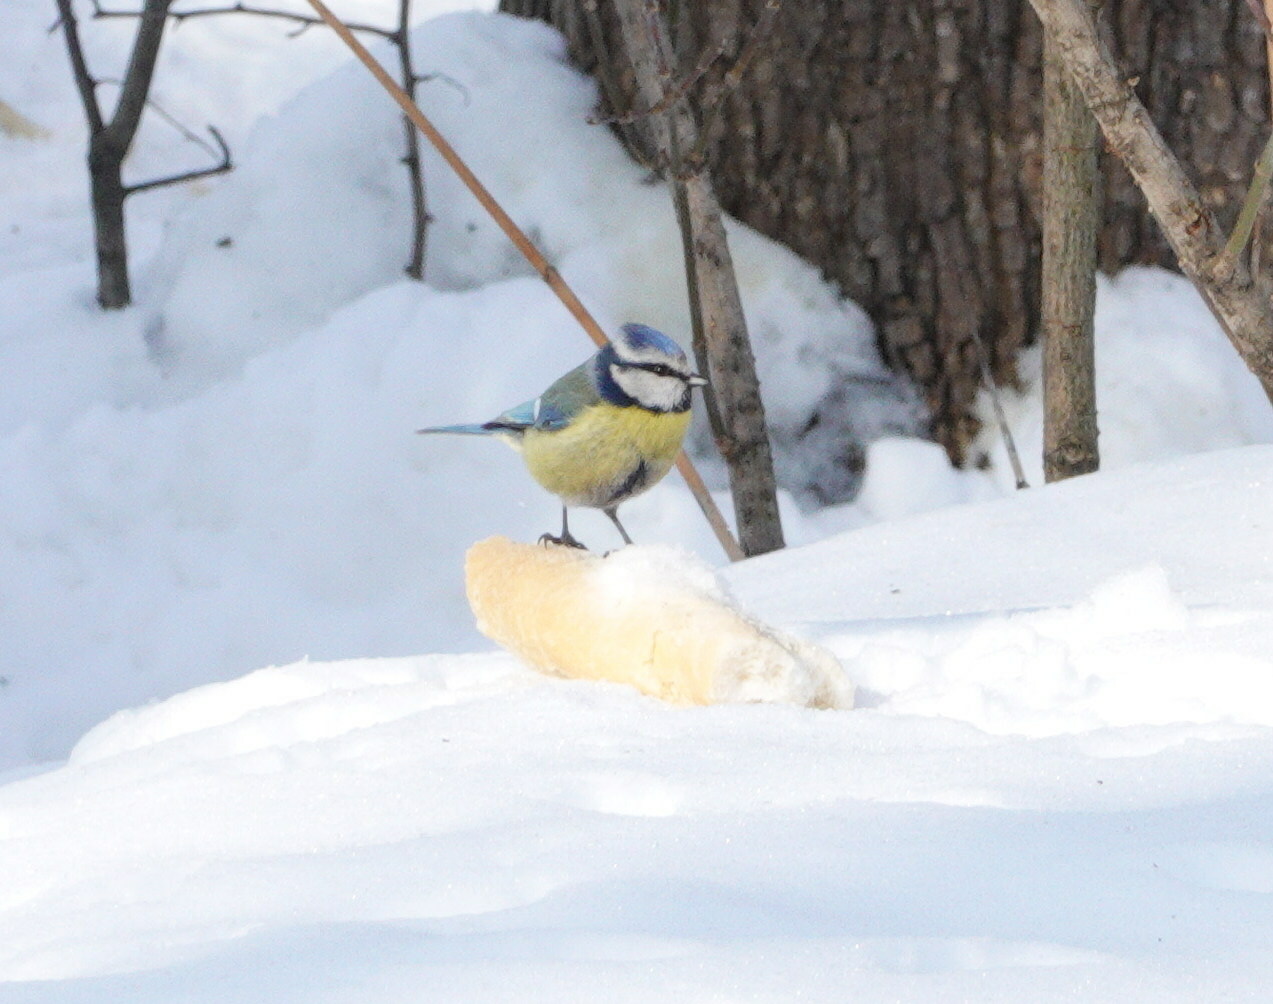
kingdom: Animalia
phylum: Chordata
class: Aves
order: Passeriformes
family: Paridae
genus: Cyanistes
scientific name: Cyanistes caeruleus
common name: Eurasian blue tit
